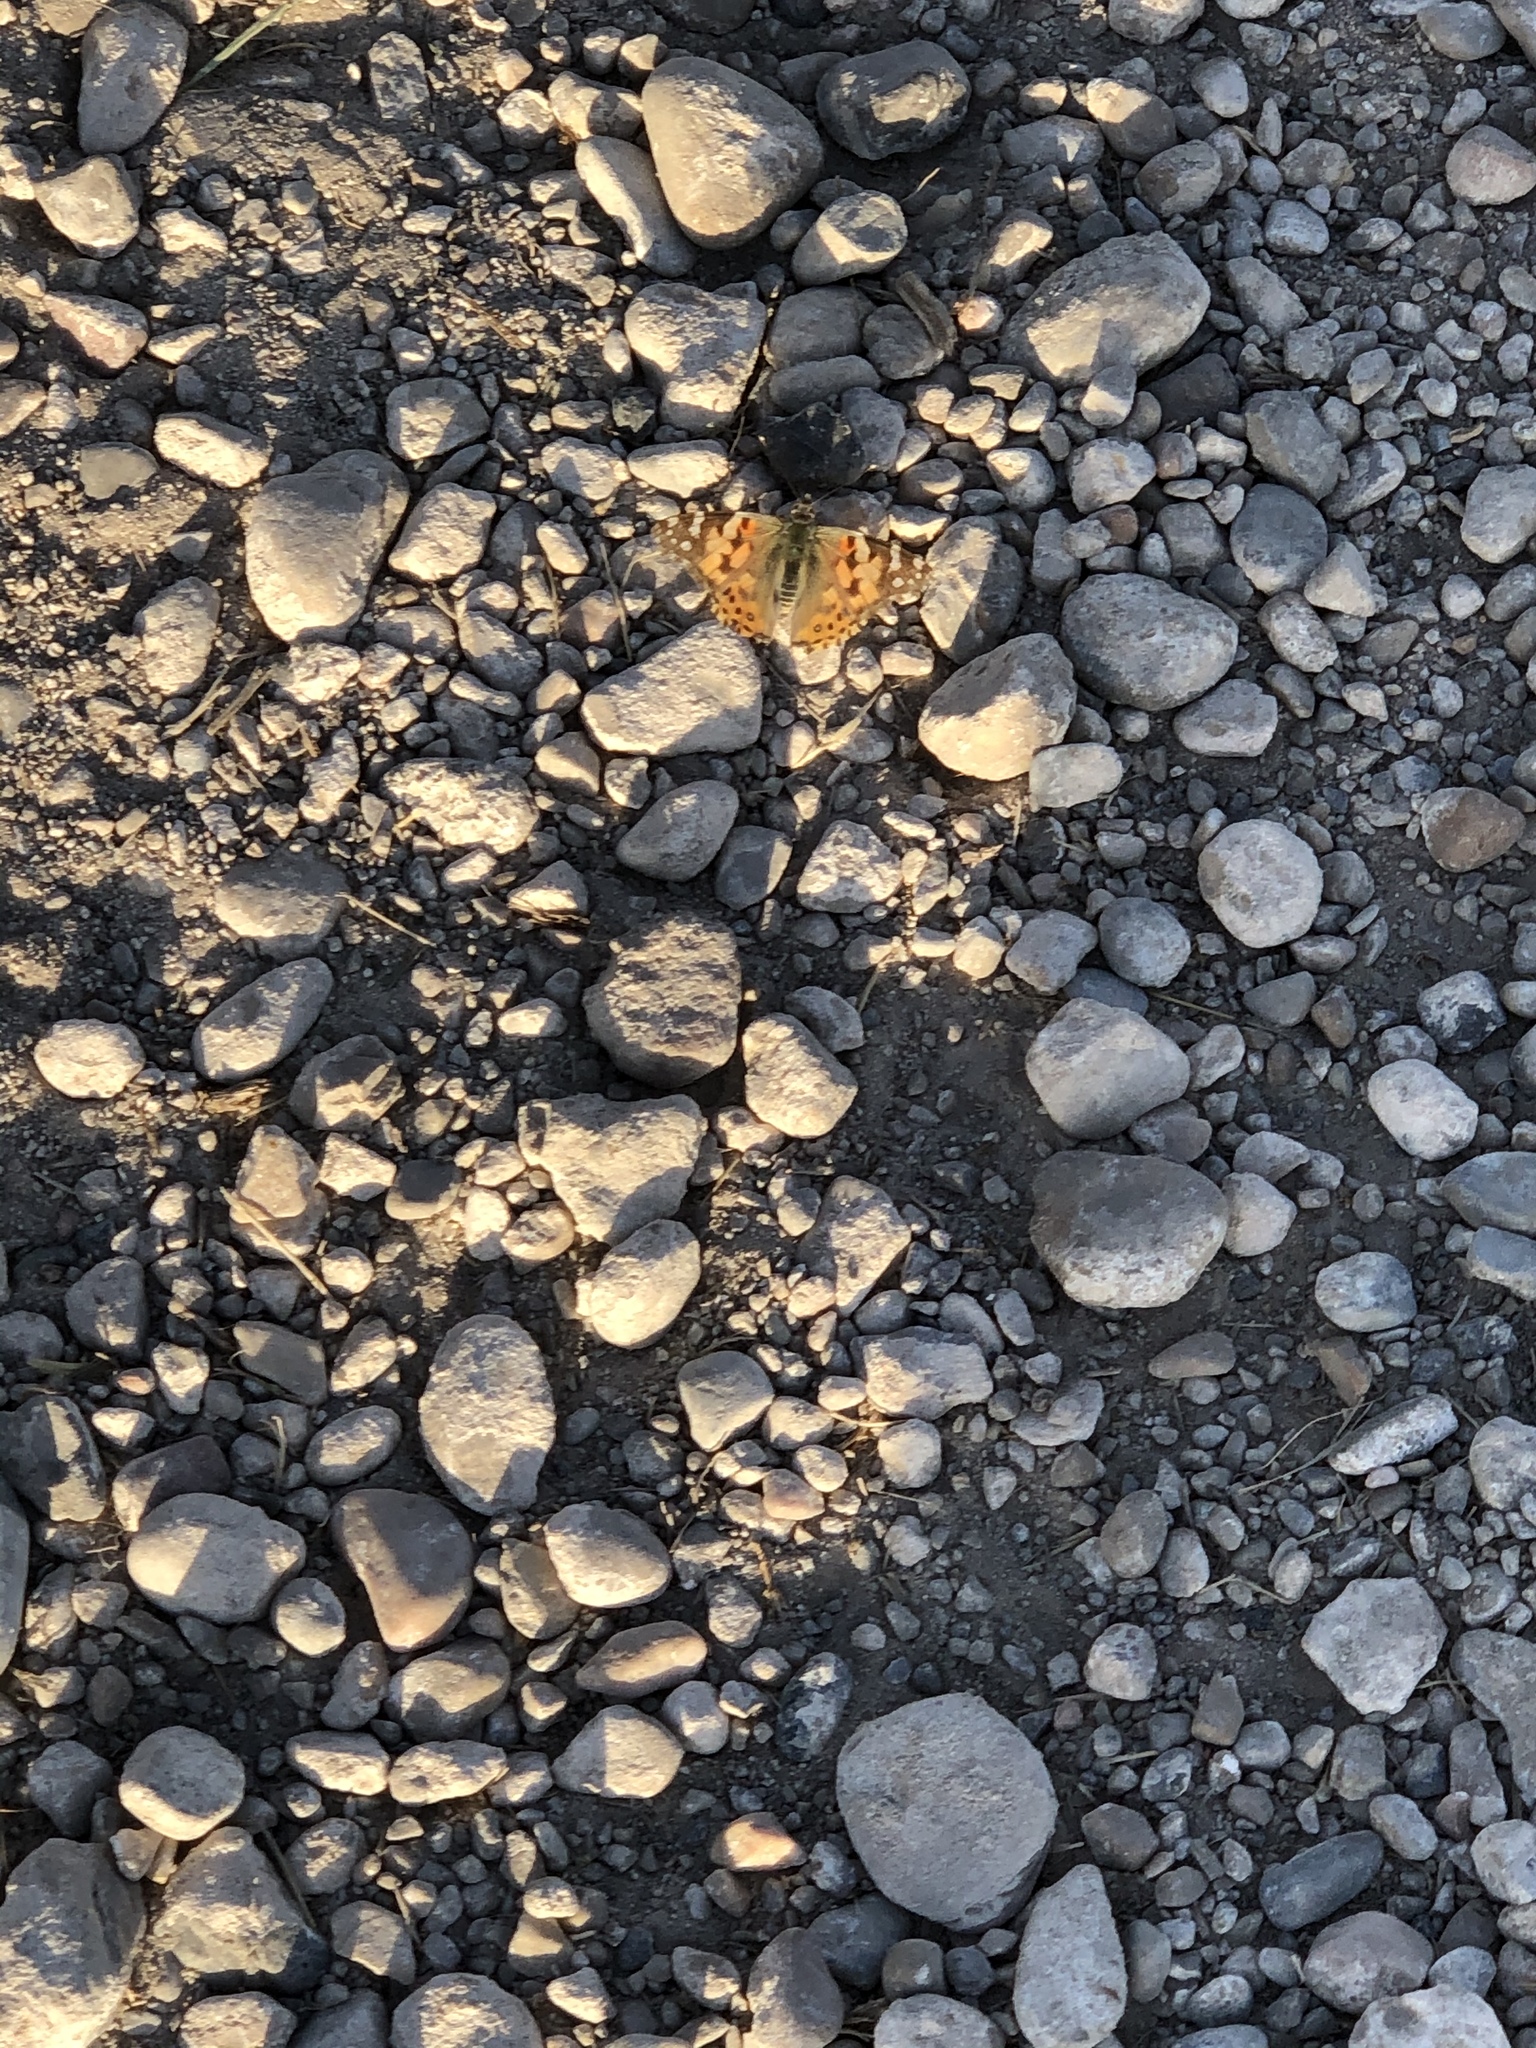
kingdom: Animalia
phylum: Arthropoda
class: Insecta
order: Lepidoptera
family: Nymphalidae
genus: Vanessa
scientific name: Vanessa cardui
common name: Painted lady
